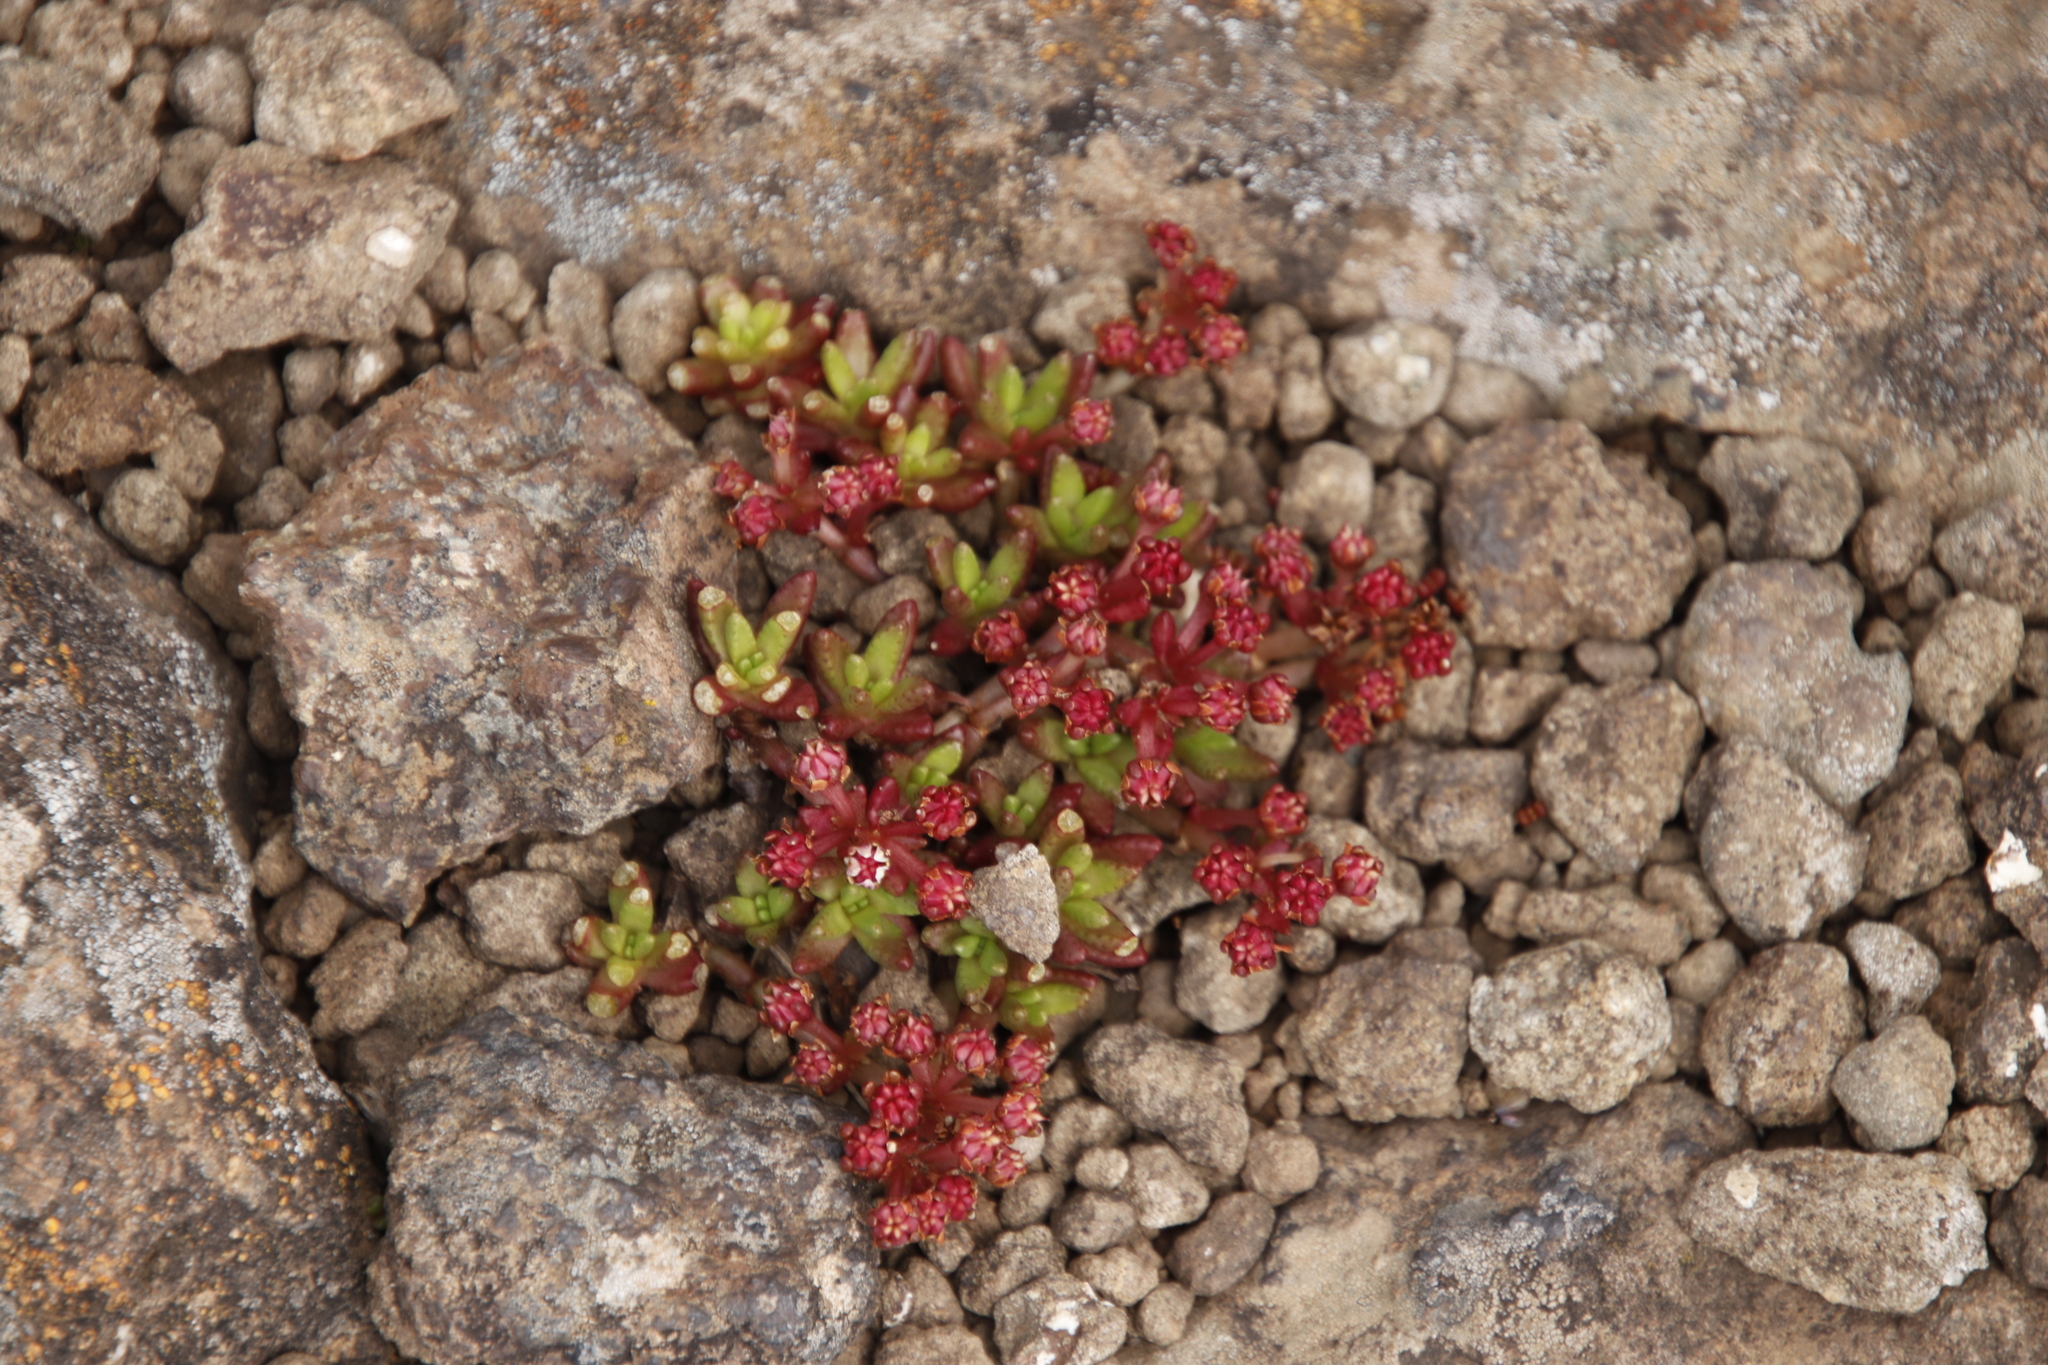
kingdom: Plantae
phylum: Tracheophyta
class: Magnoliopsida
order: Saxifragales
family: Crassulaceae
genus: Crassula
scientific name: Crassula peploides
